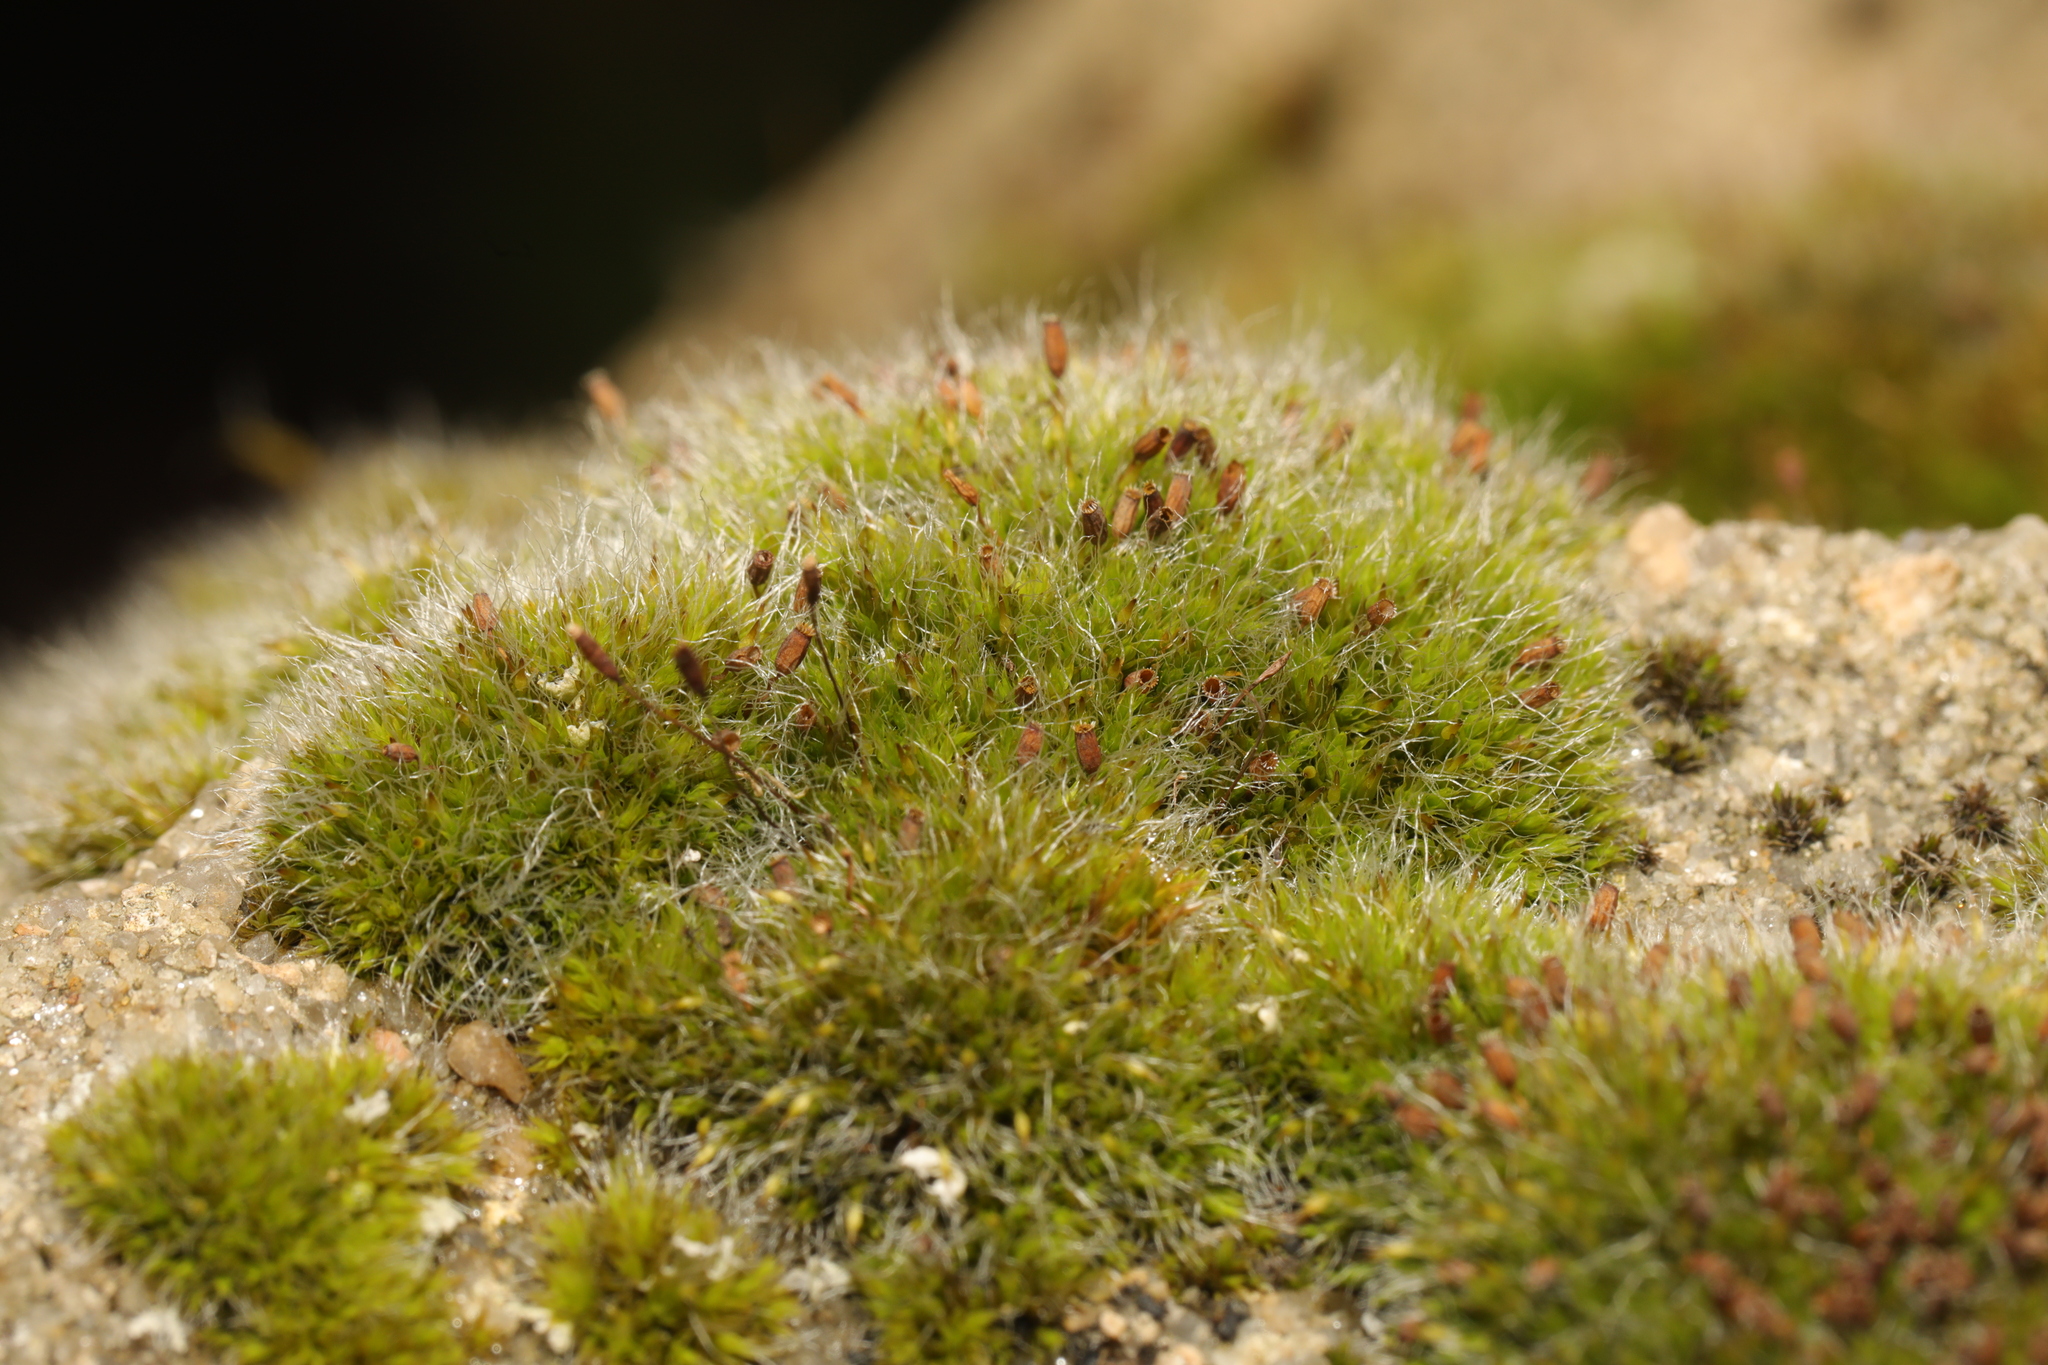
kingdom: Plantae
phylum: Bryophyta
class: Bryopsida
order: Grimmiales
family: Grimmiaceae
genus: Grimmia
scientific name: Grimmia pulvinata
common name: Grey-cushioned grimmia
